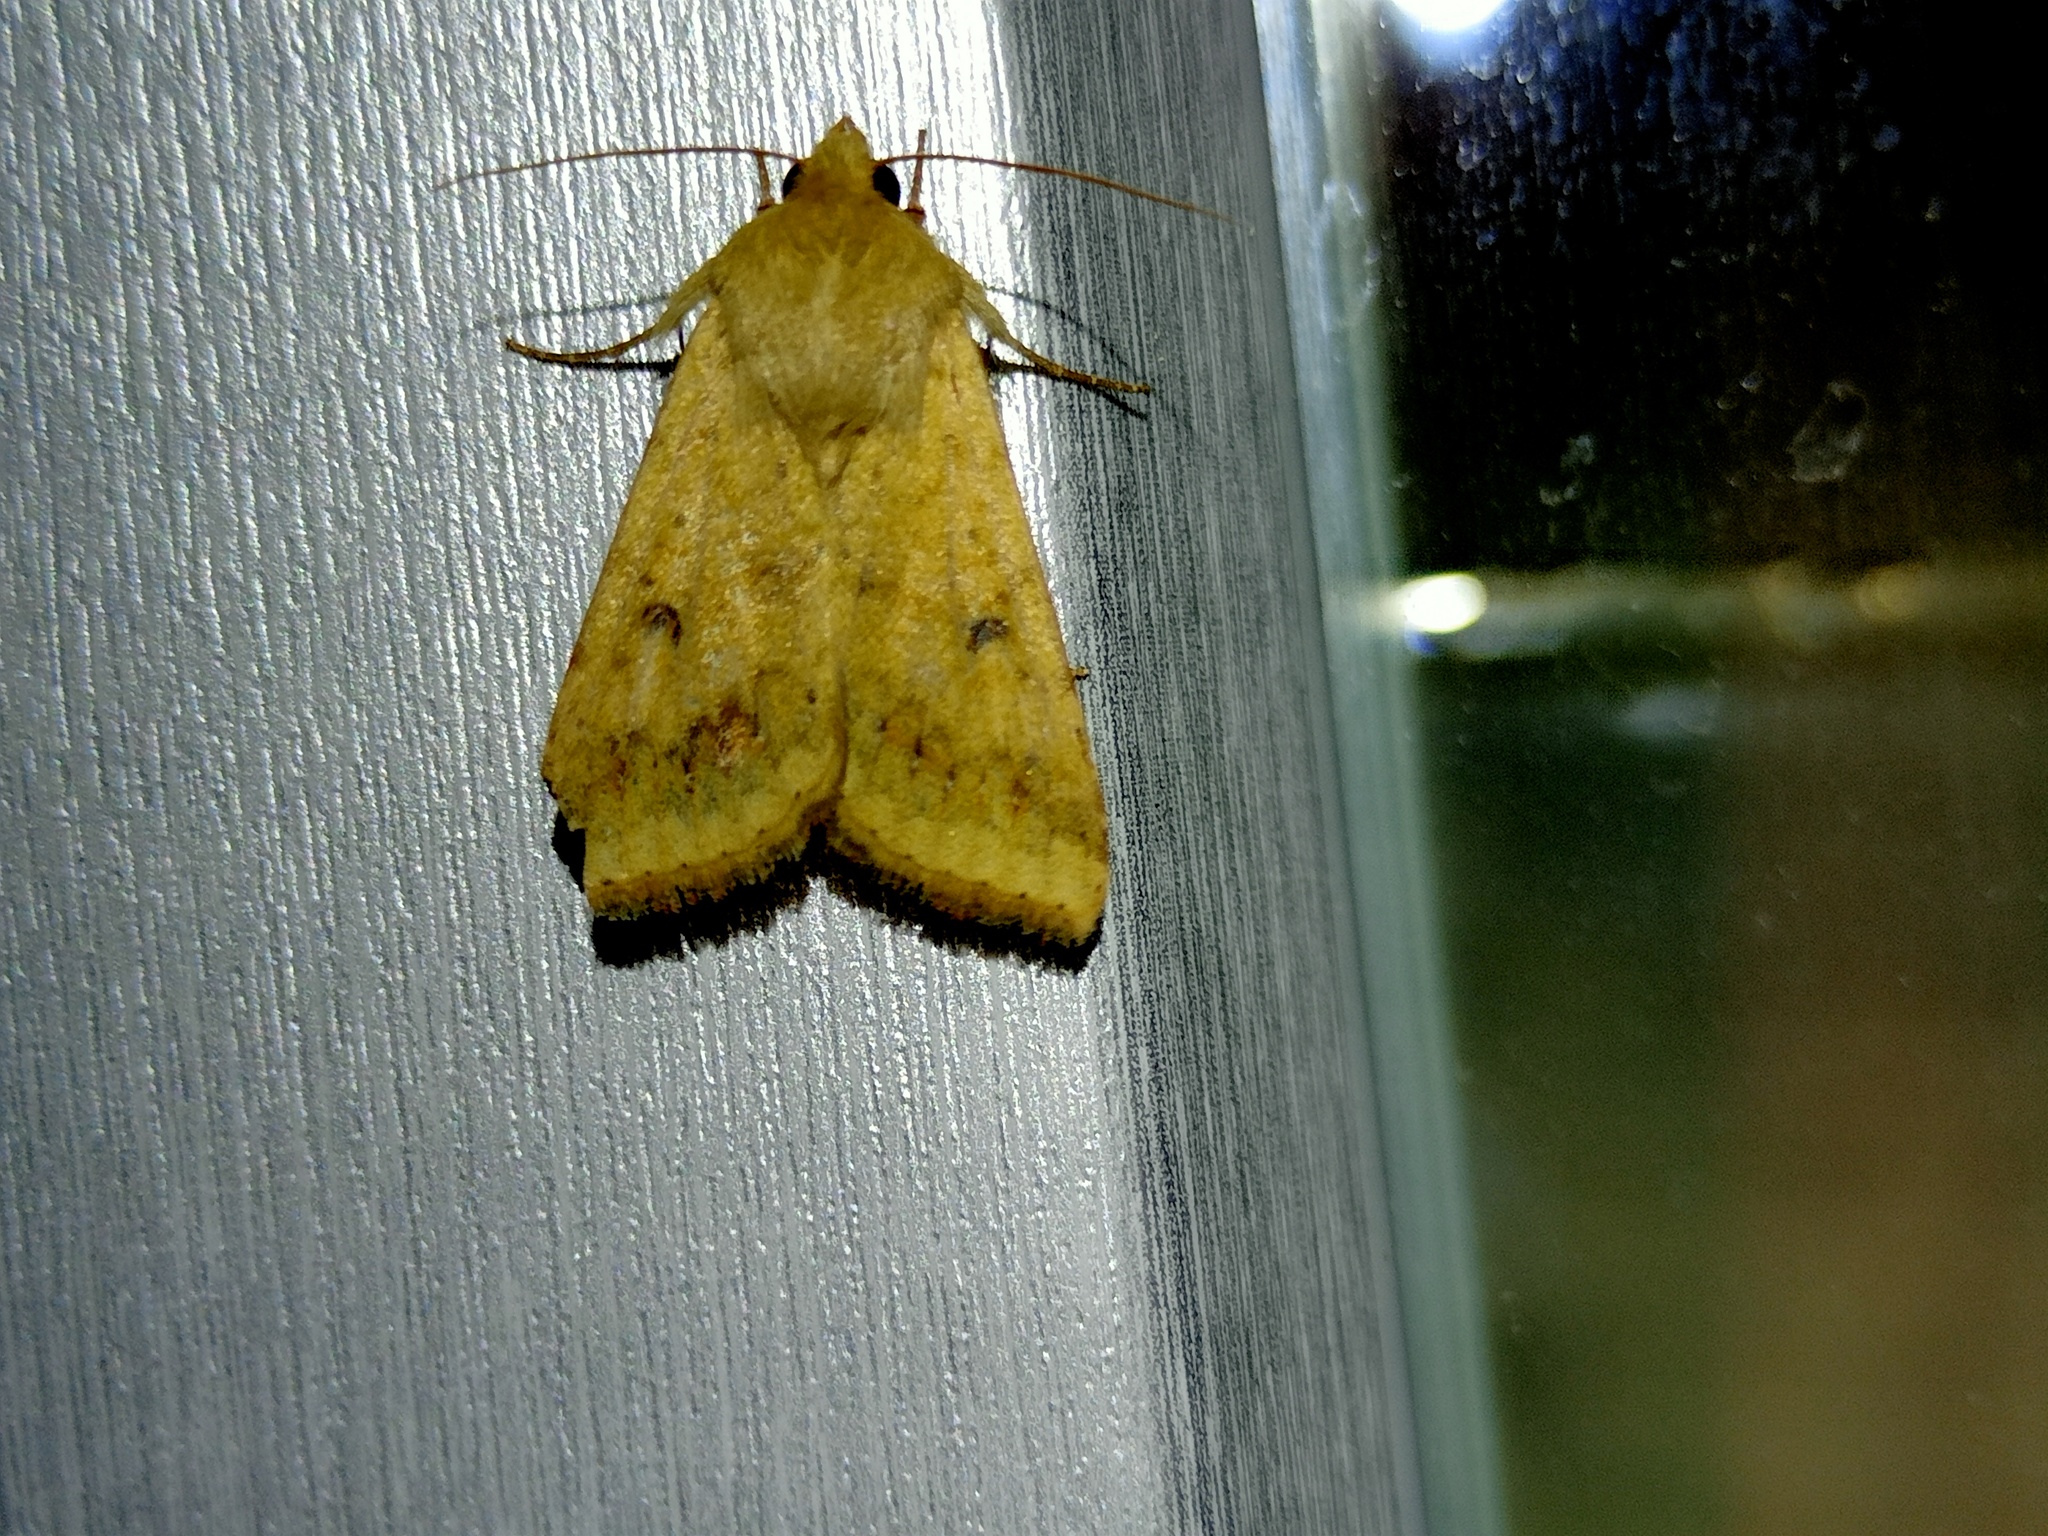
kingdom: Animalia
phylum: Arthropoda
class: Insecta
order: Lepidoptera
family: Noctuidae
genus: Helicoverpa
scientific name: Helicoverpa armigera
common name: Cotton bollworm
